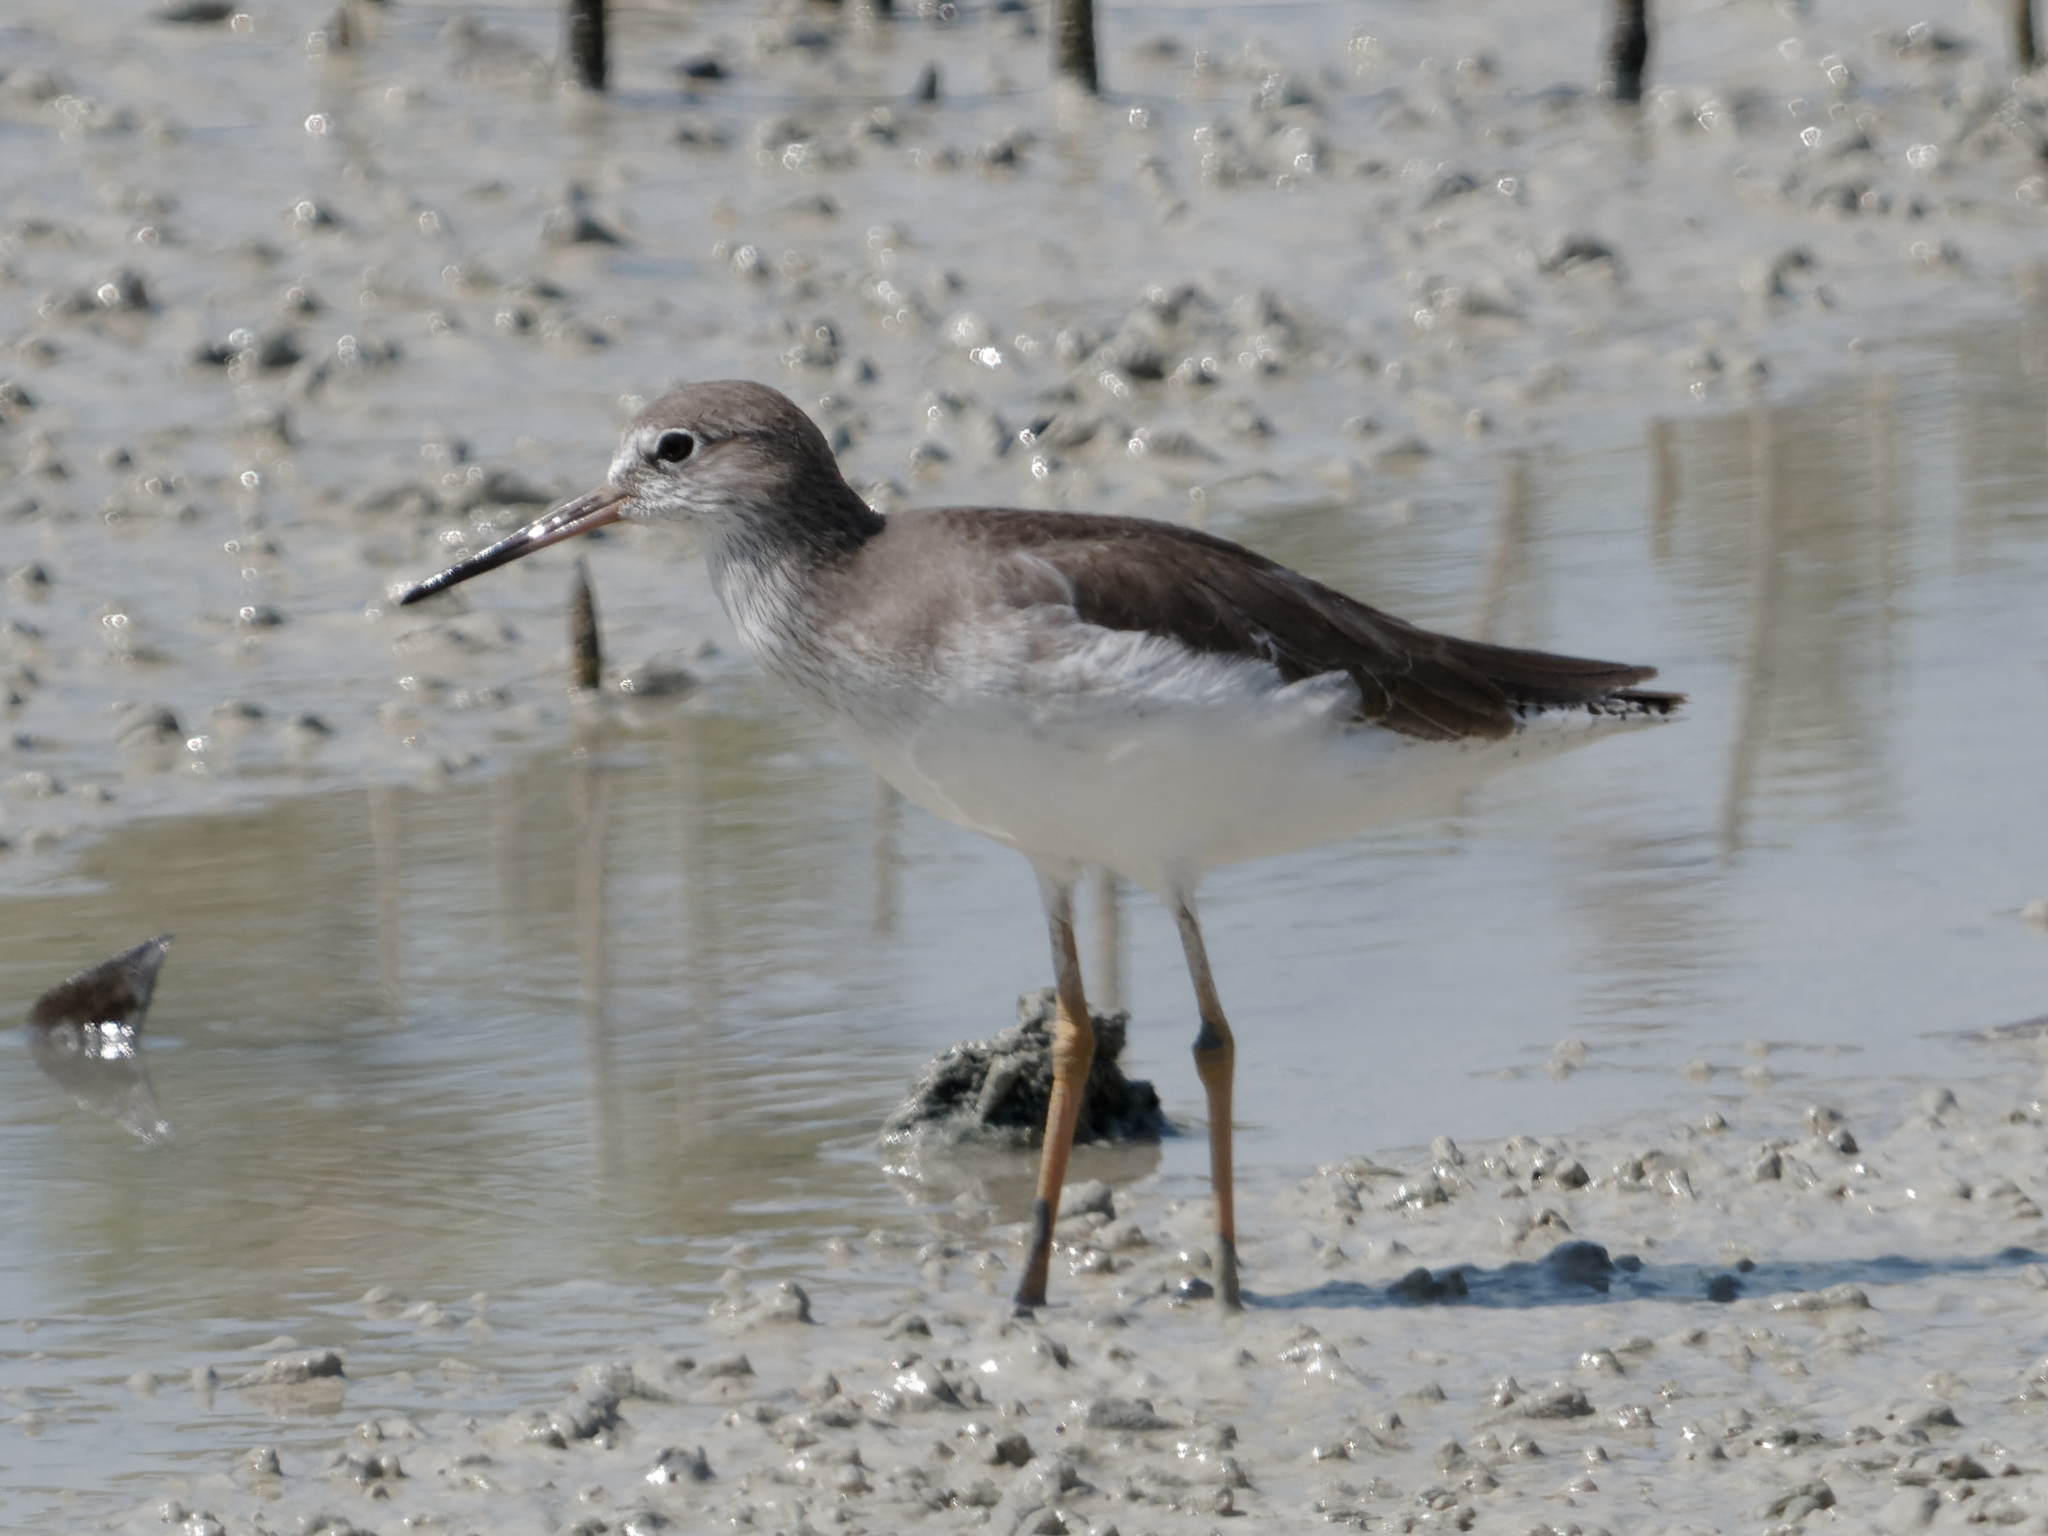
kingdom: Animalia
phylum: Chordata
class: Aves
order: Charadriiformes
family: Scolopacidae
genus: Tringa
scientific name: Tringa totanus
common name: Common redshank
